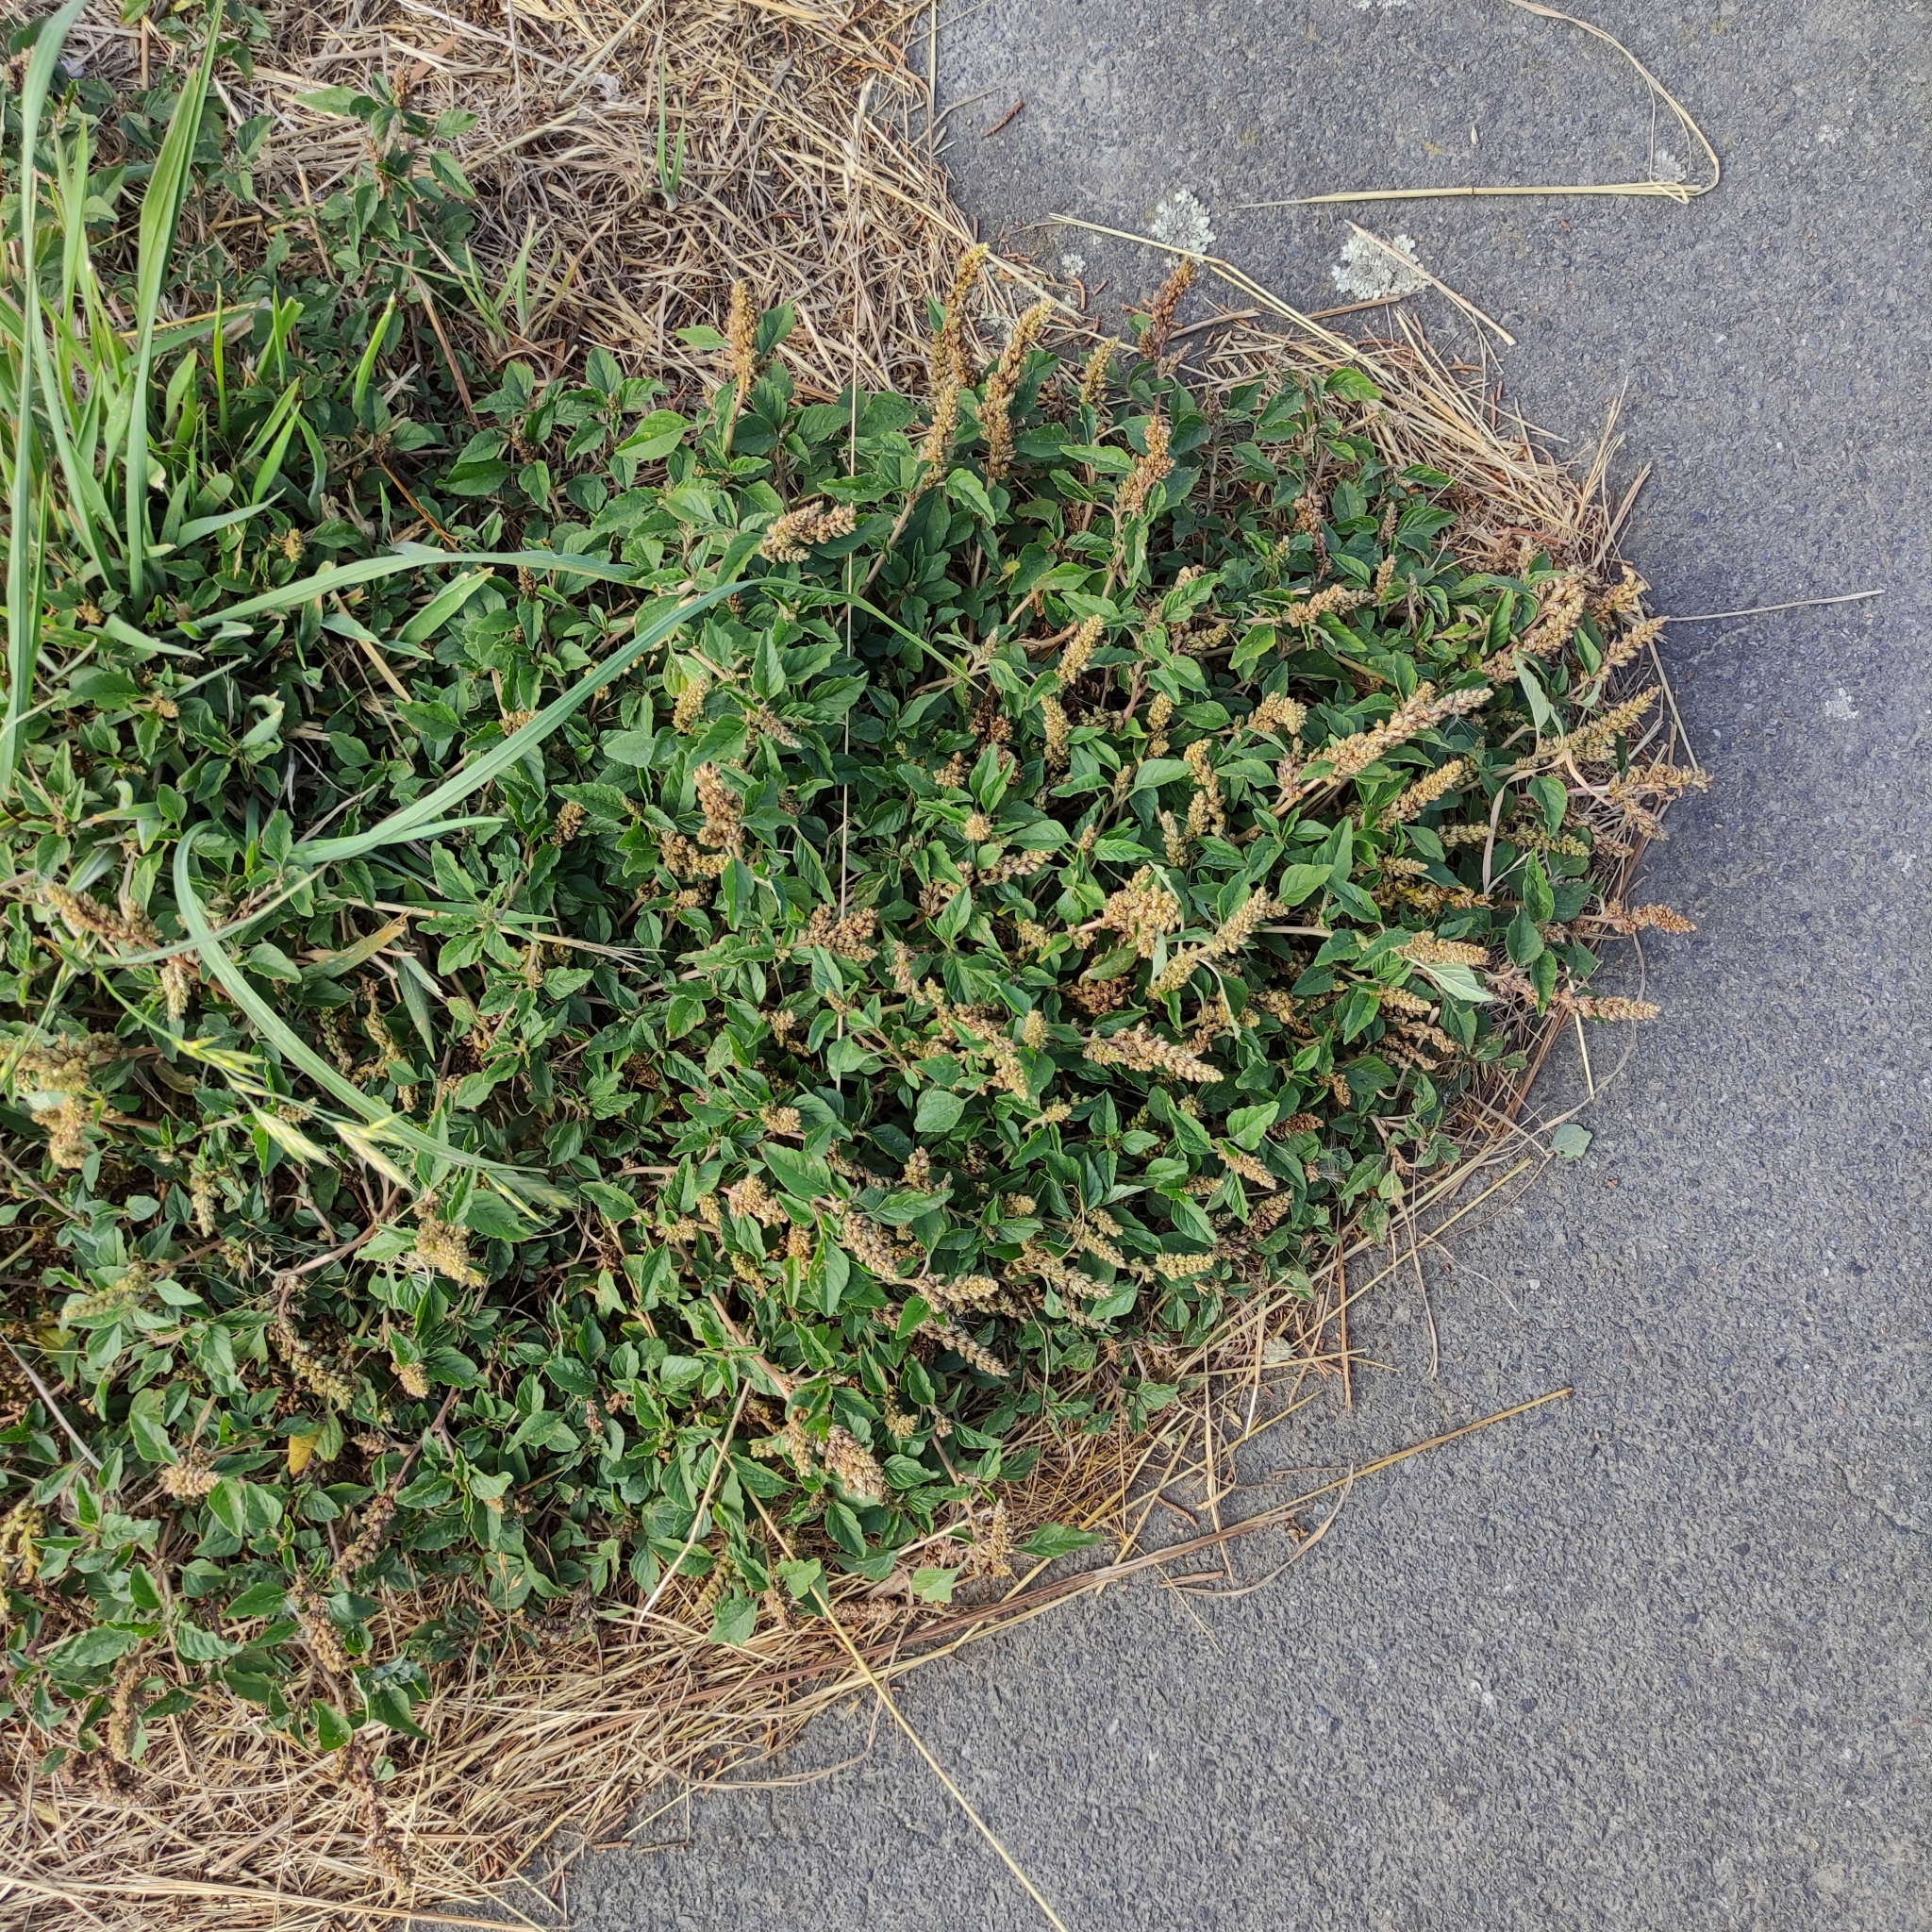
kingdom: Plantae
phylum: Tracheophyta
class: Magnoliopsida
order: Caryophyllales
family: Amaranthaceae
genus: Amaranthus
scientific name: Amaranthus deflexus
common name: Perennial pigweed
